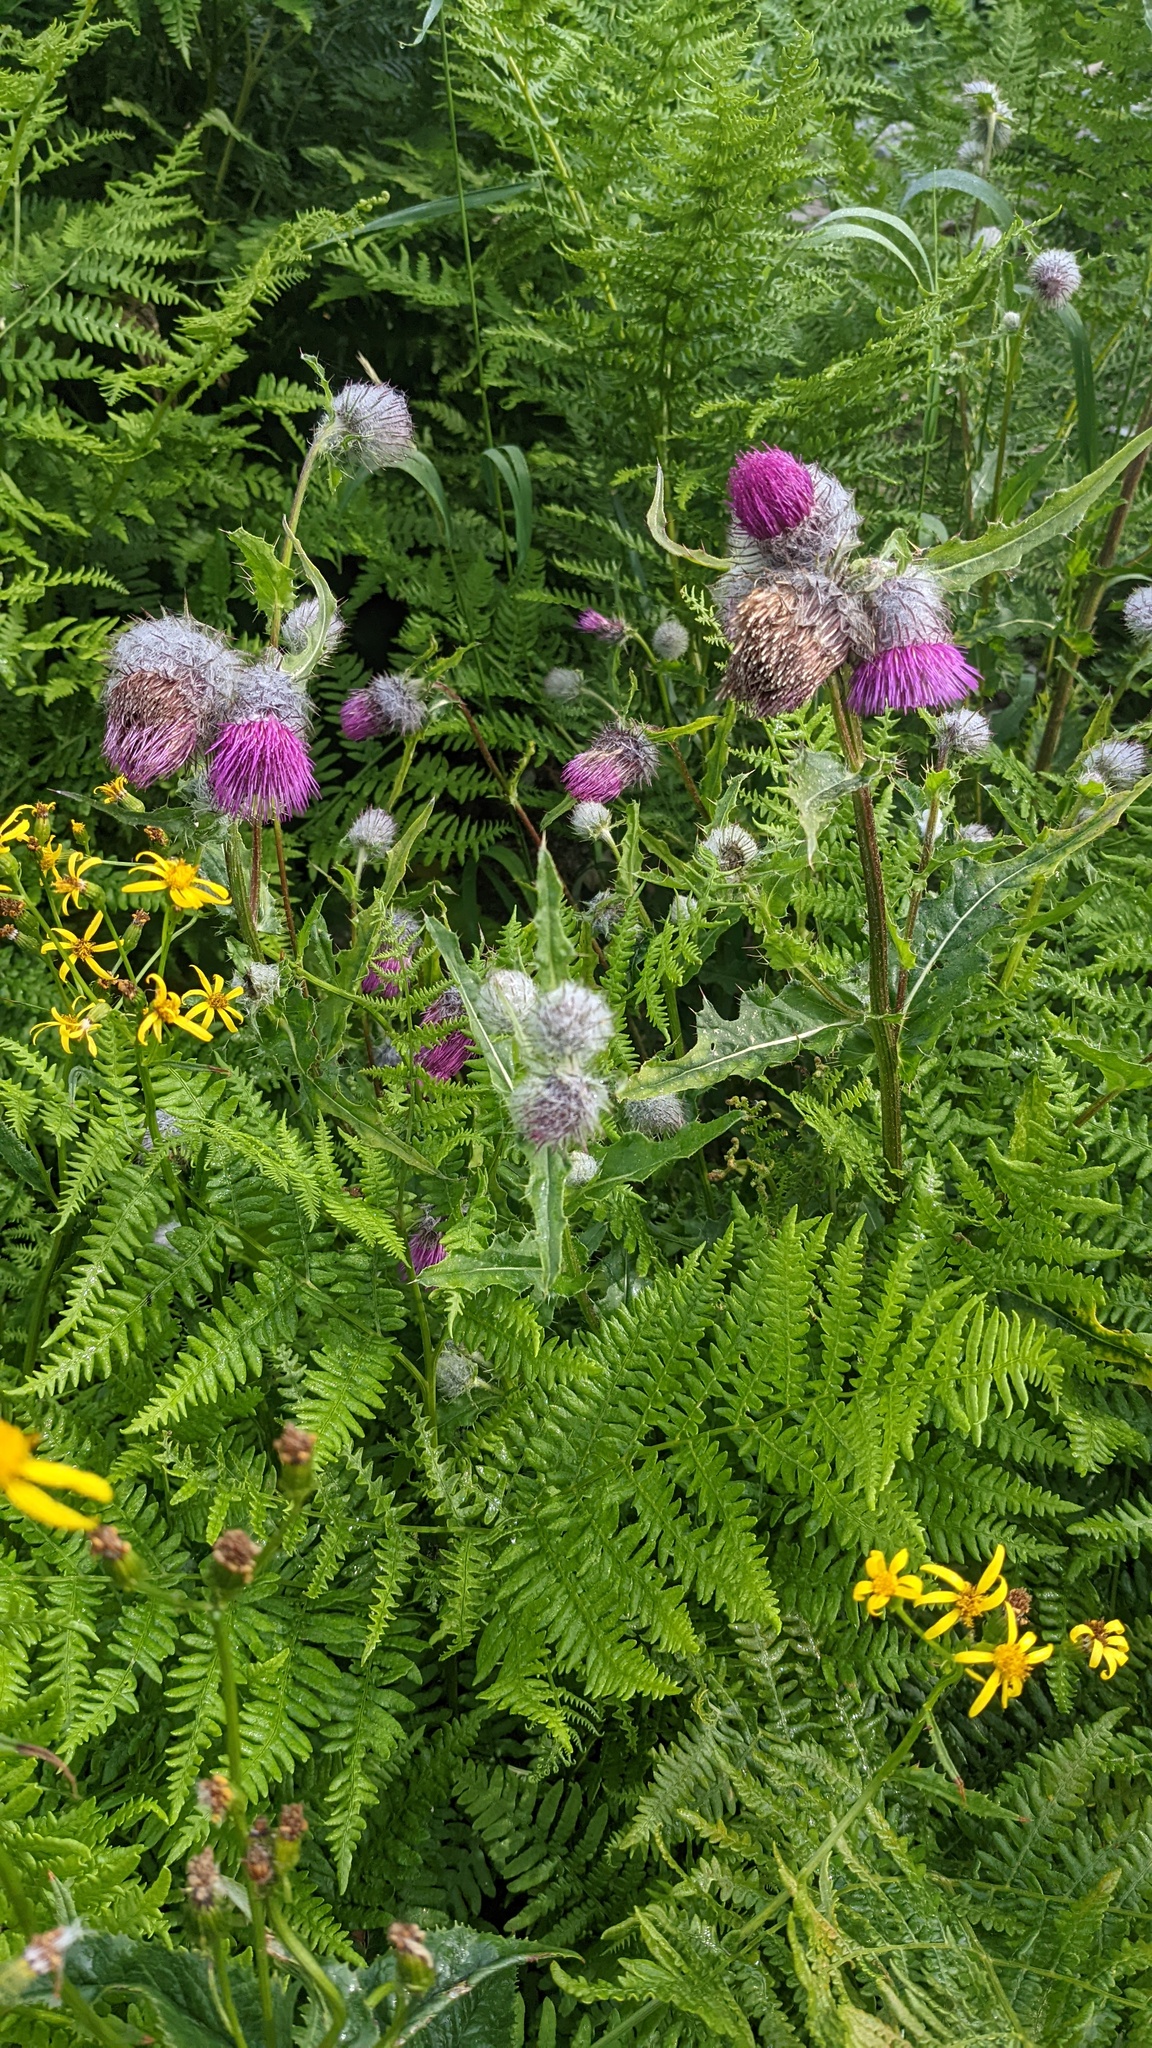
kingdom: Plantae
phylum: Tracheophyta
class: Magnoliopsida
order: Asterales
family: Asteraceae
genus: Cirsium
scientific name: Cirsium edule
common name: Indian thistle
